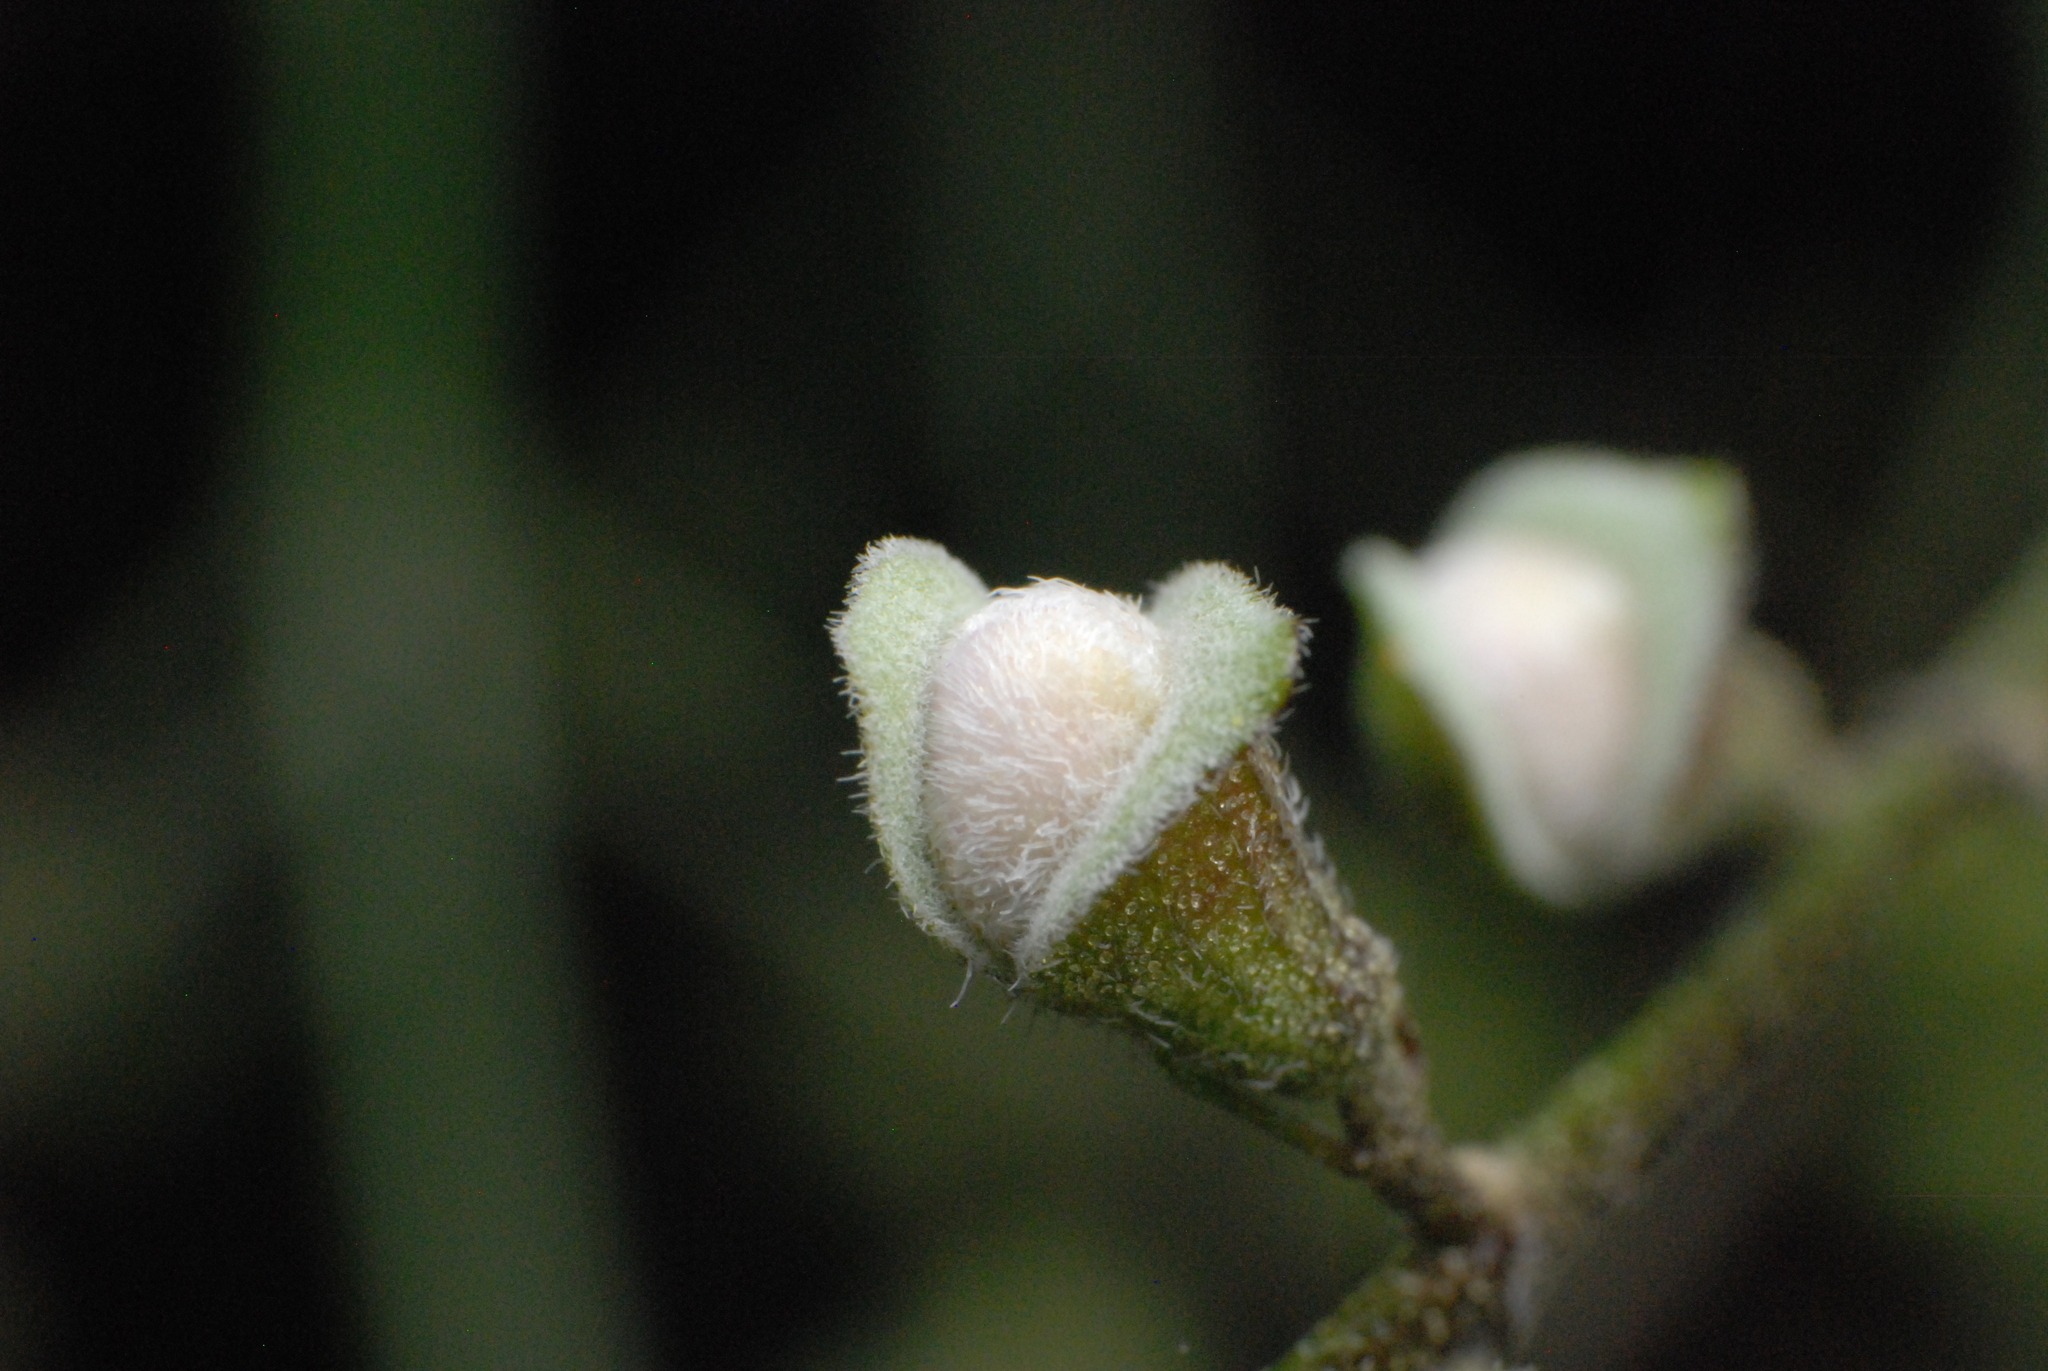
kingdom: Plantae
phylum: Tracheophyta
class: Magnoliopsida
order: Lamiales
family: Lamiaceae
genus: Prostanthera
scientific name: Prostanthera lasianthos
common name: Mountain-lilac
